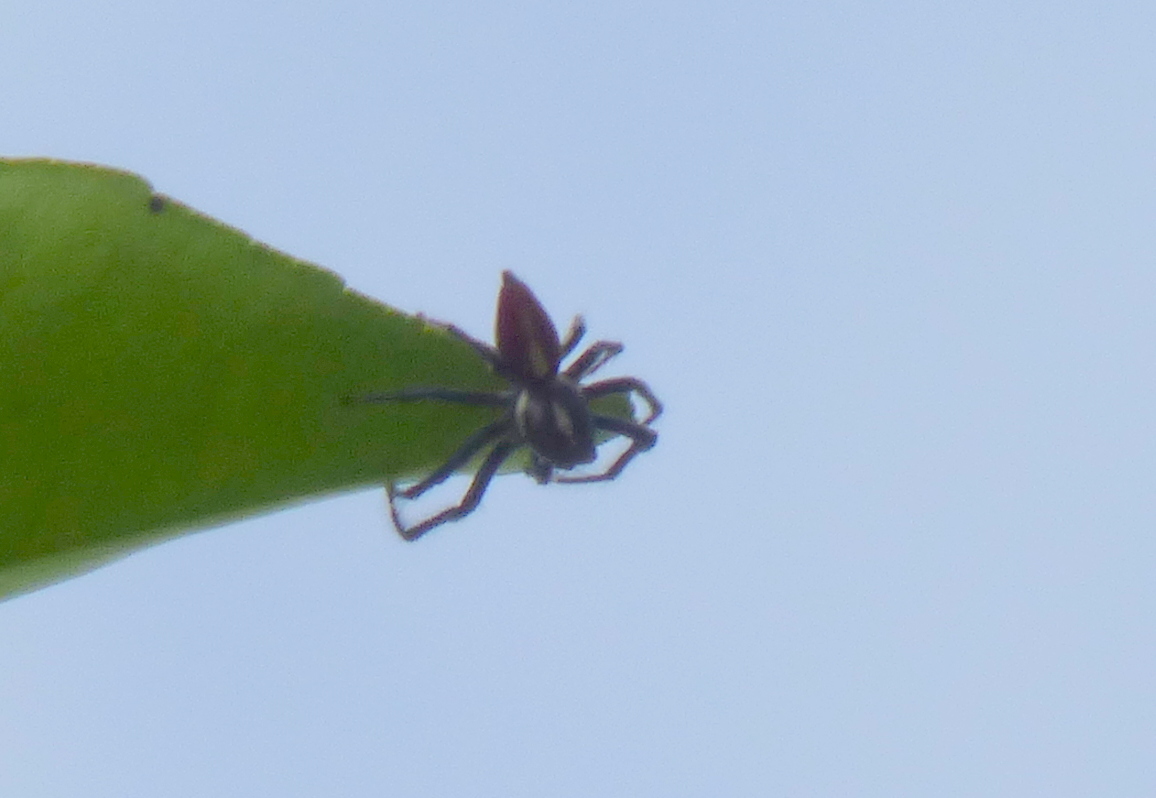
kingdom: Animalia
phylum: Arthropoda
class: Arachnida
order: Araneae
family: Salticidae
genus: Frigga
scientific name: Frigga quintensis
